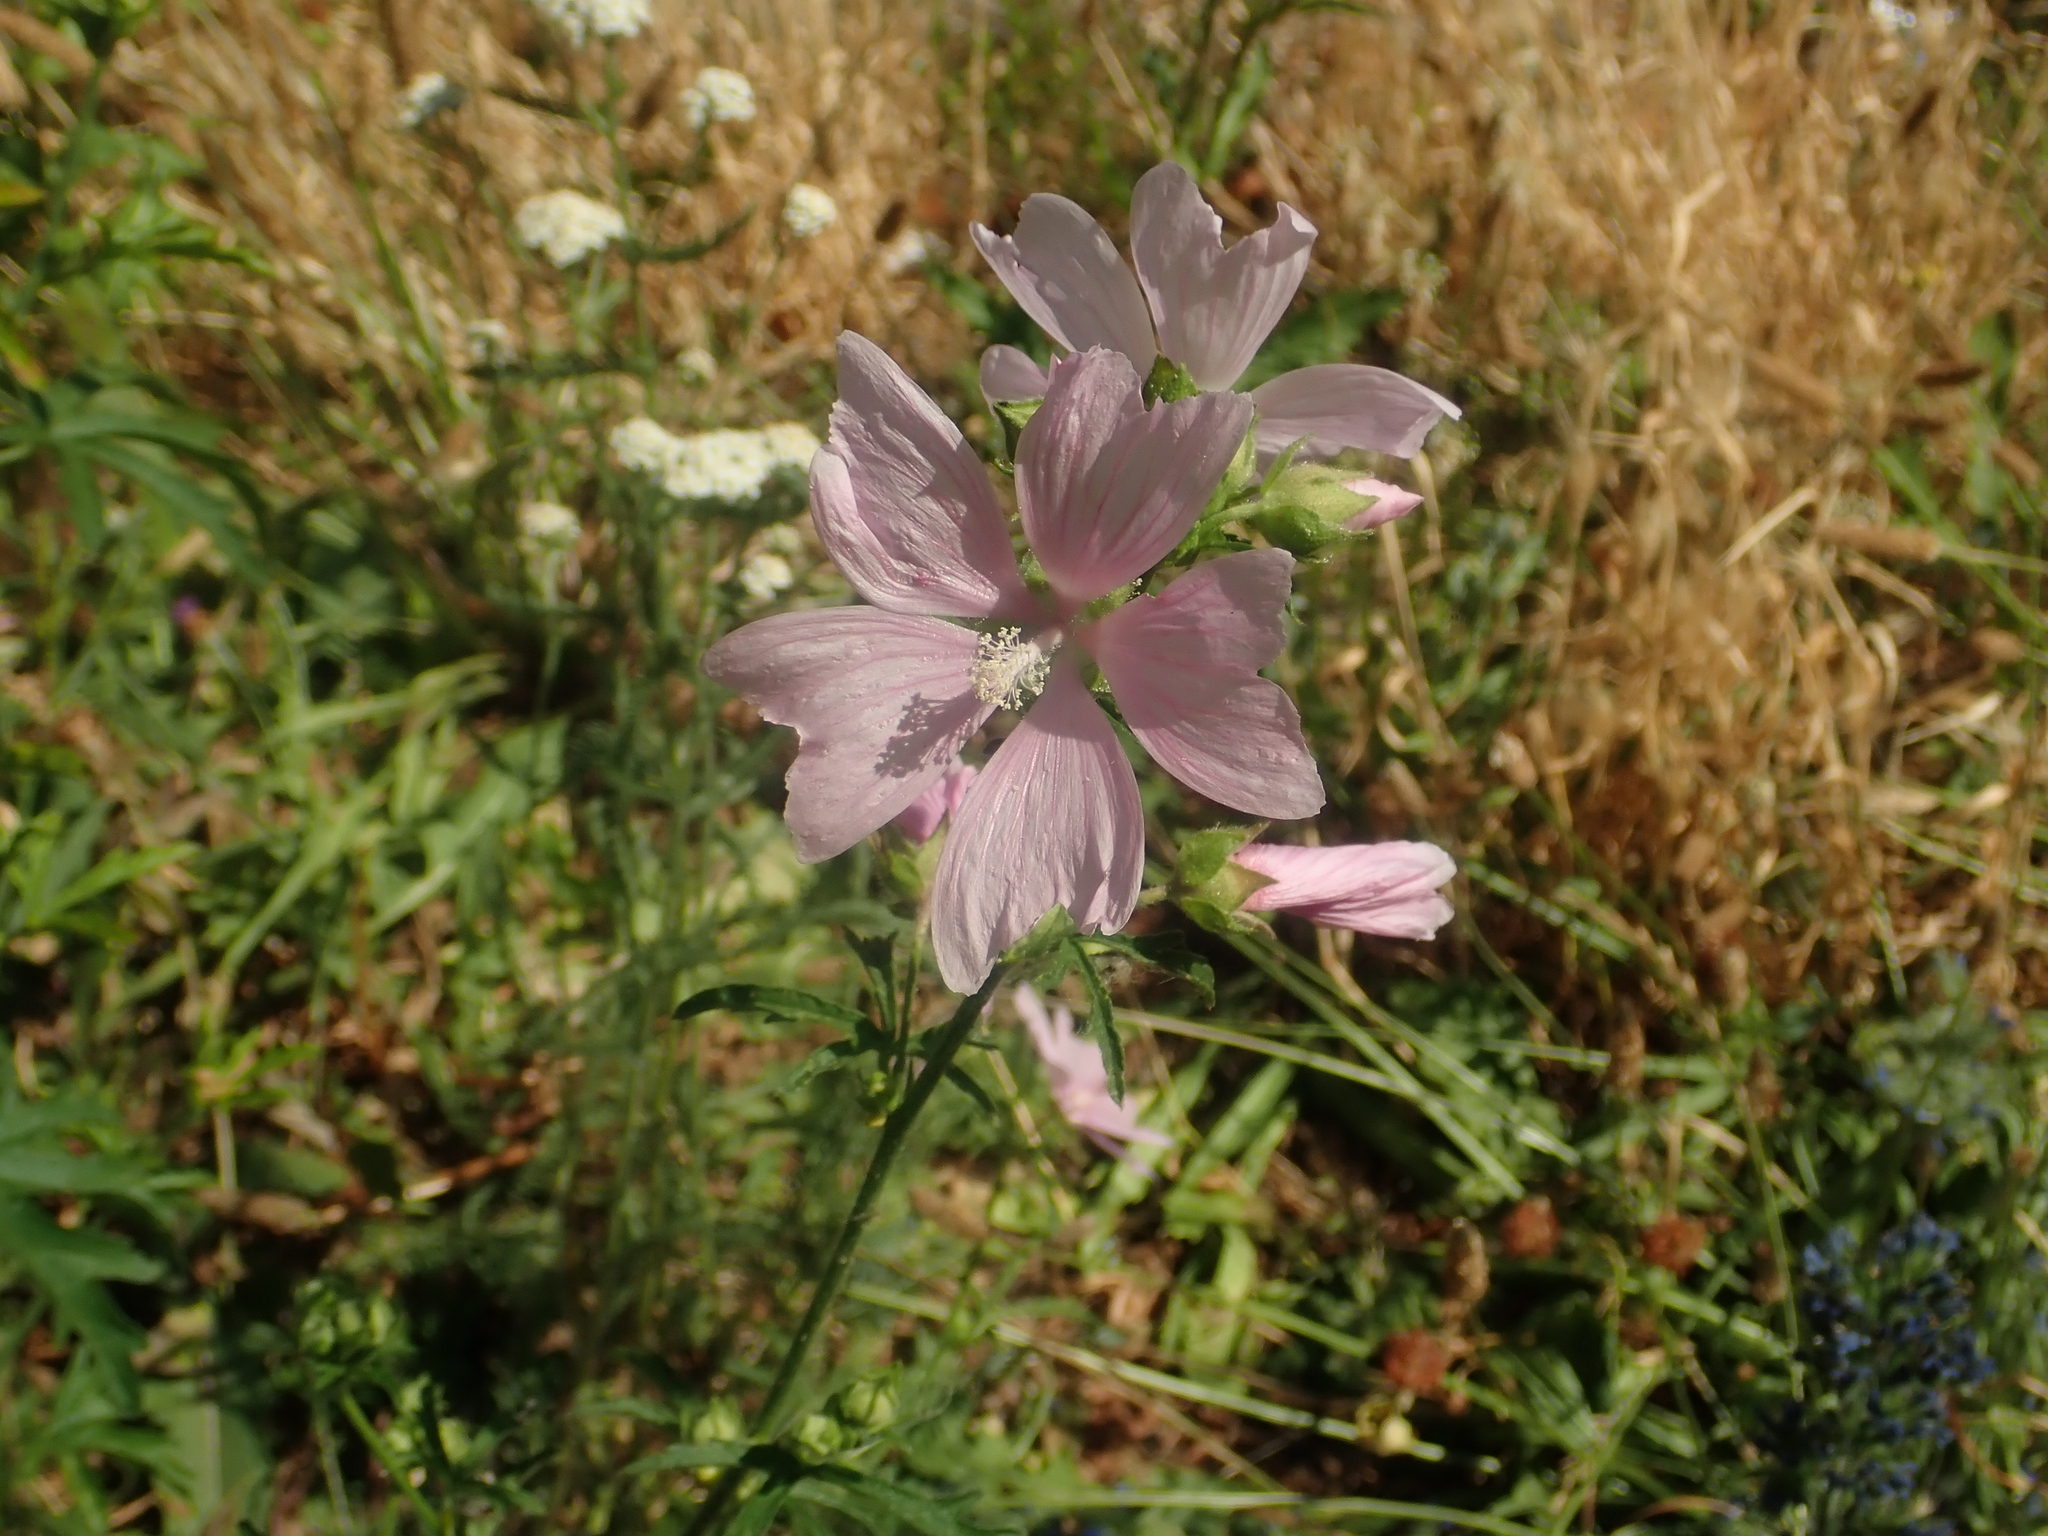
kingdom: Plantae
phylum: Tracheophyta
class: Magnoliopsida
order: Malvales
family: Malvaceae
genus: Malva
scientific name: Malva alcea
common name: Greater musk-mallow
